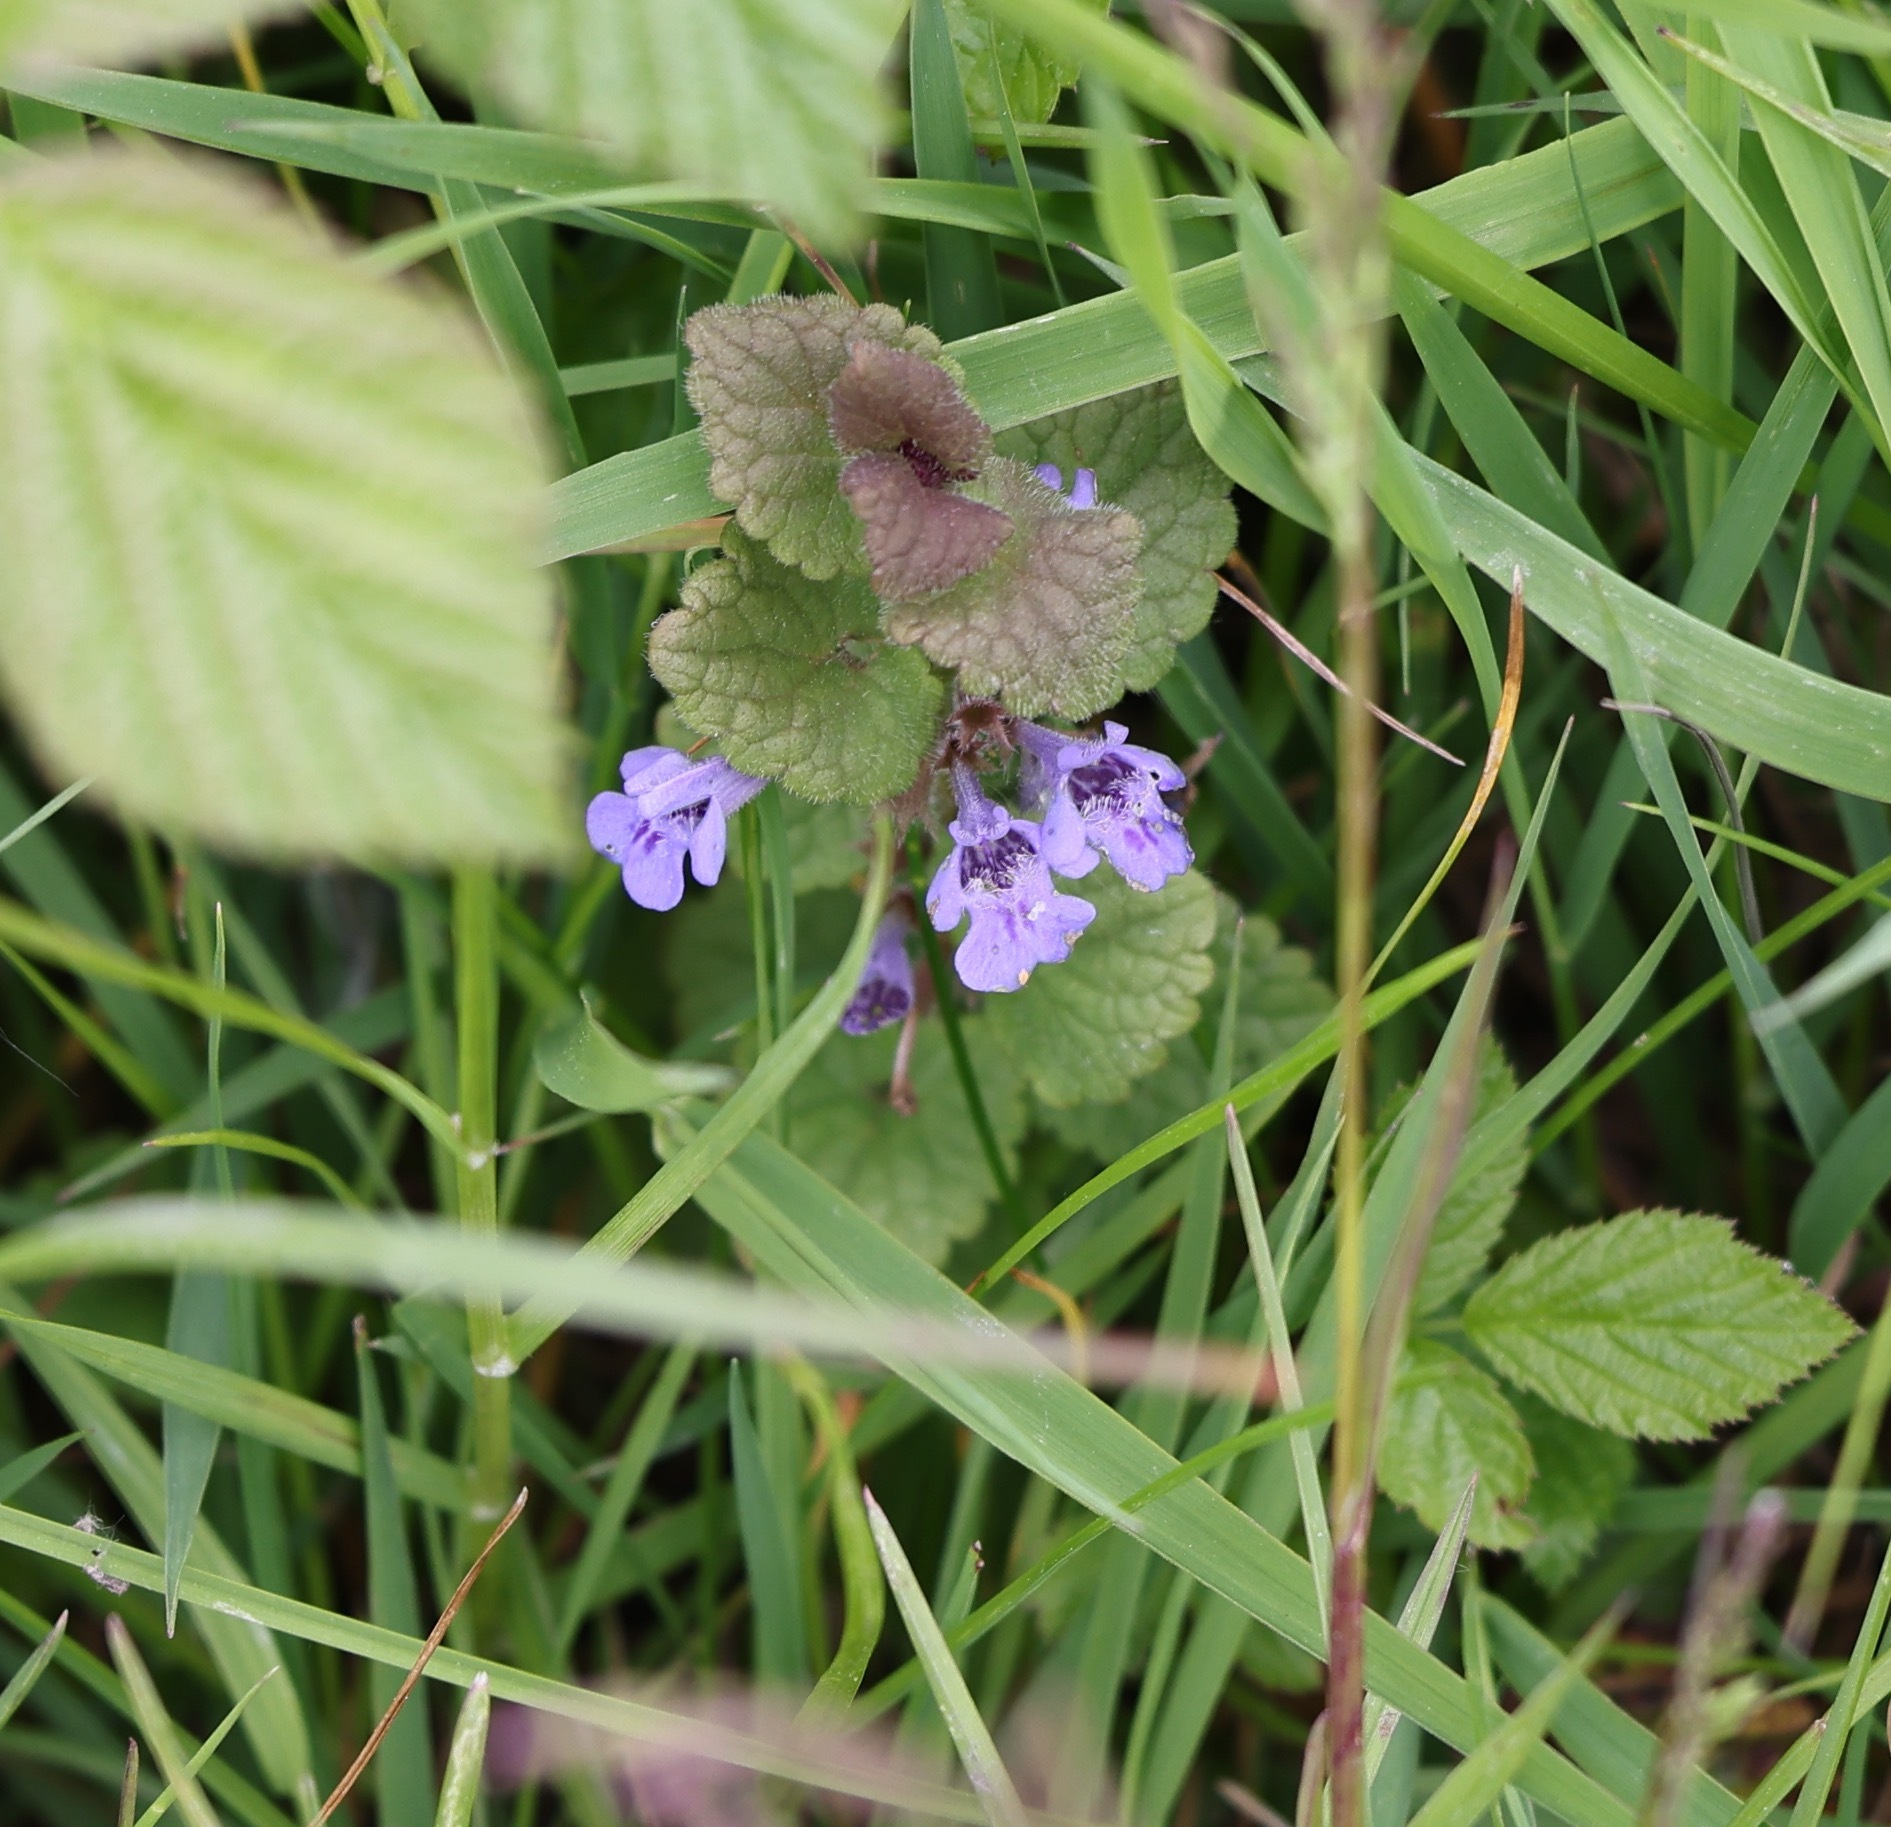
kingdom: Plantae
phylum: Tracheophyta
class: Magnoliopsida
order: Lamiales
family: Lamiaceae
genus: Glechoma
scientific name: Glechoma hederacea
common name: Ground ivy
